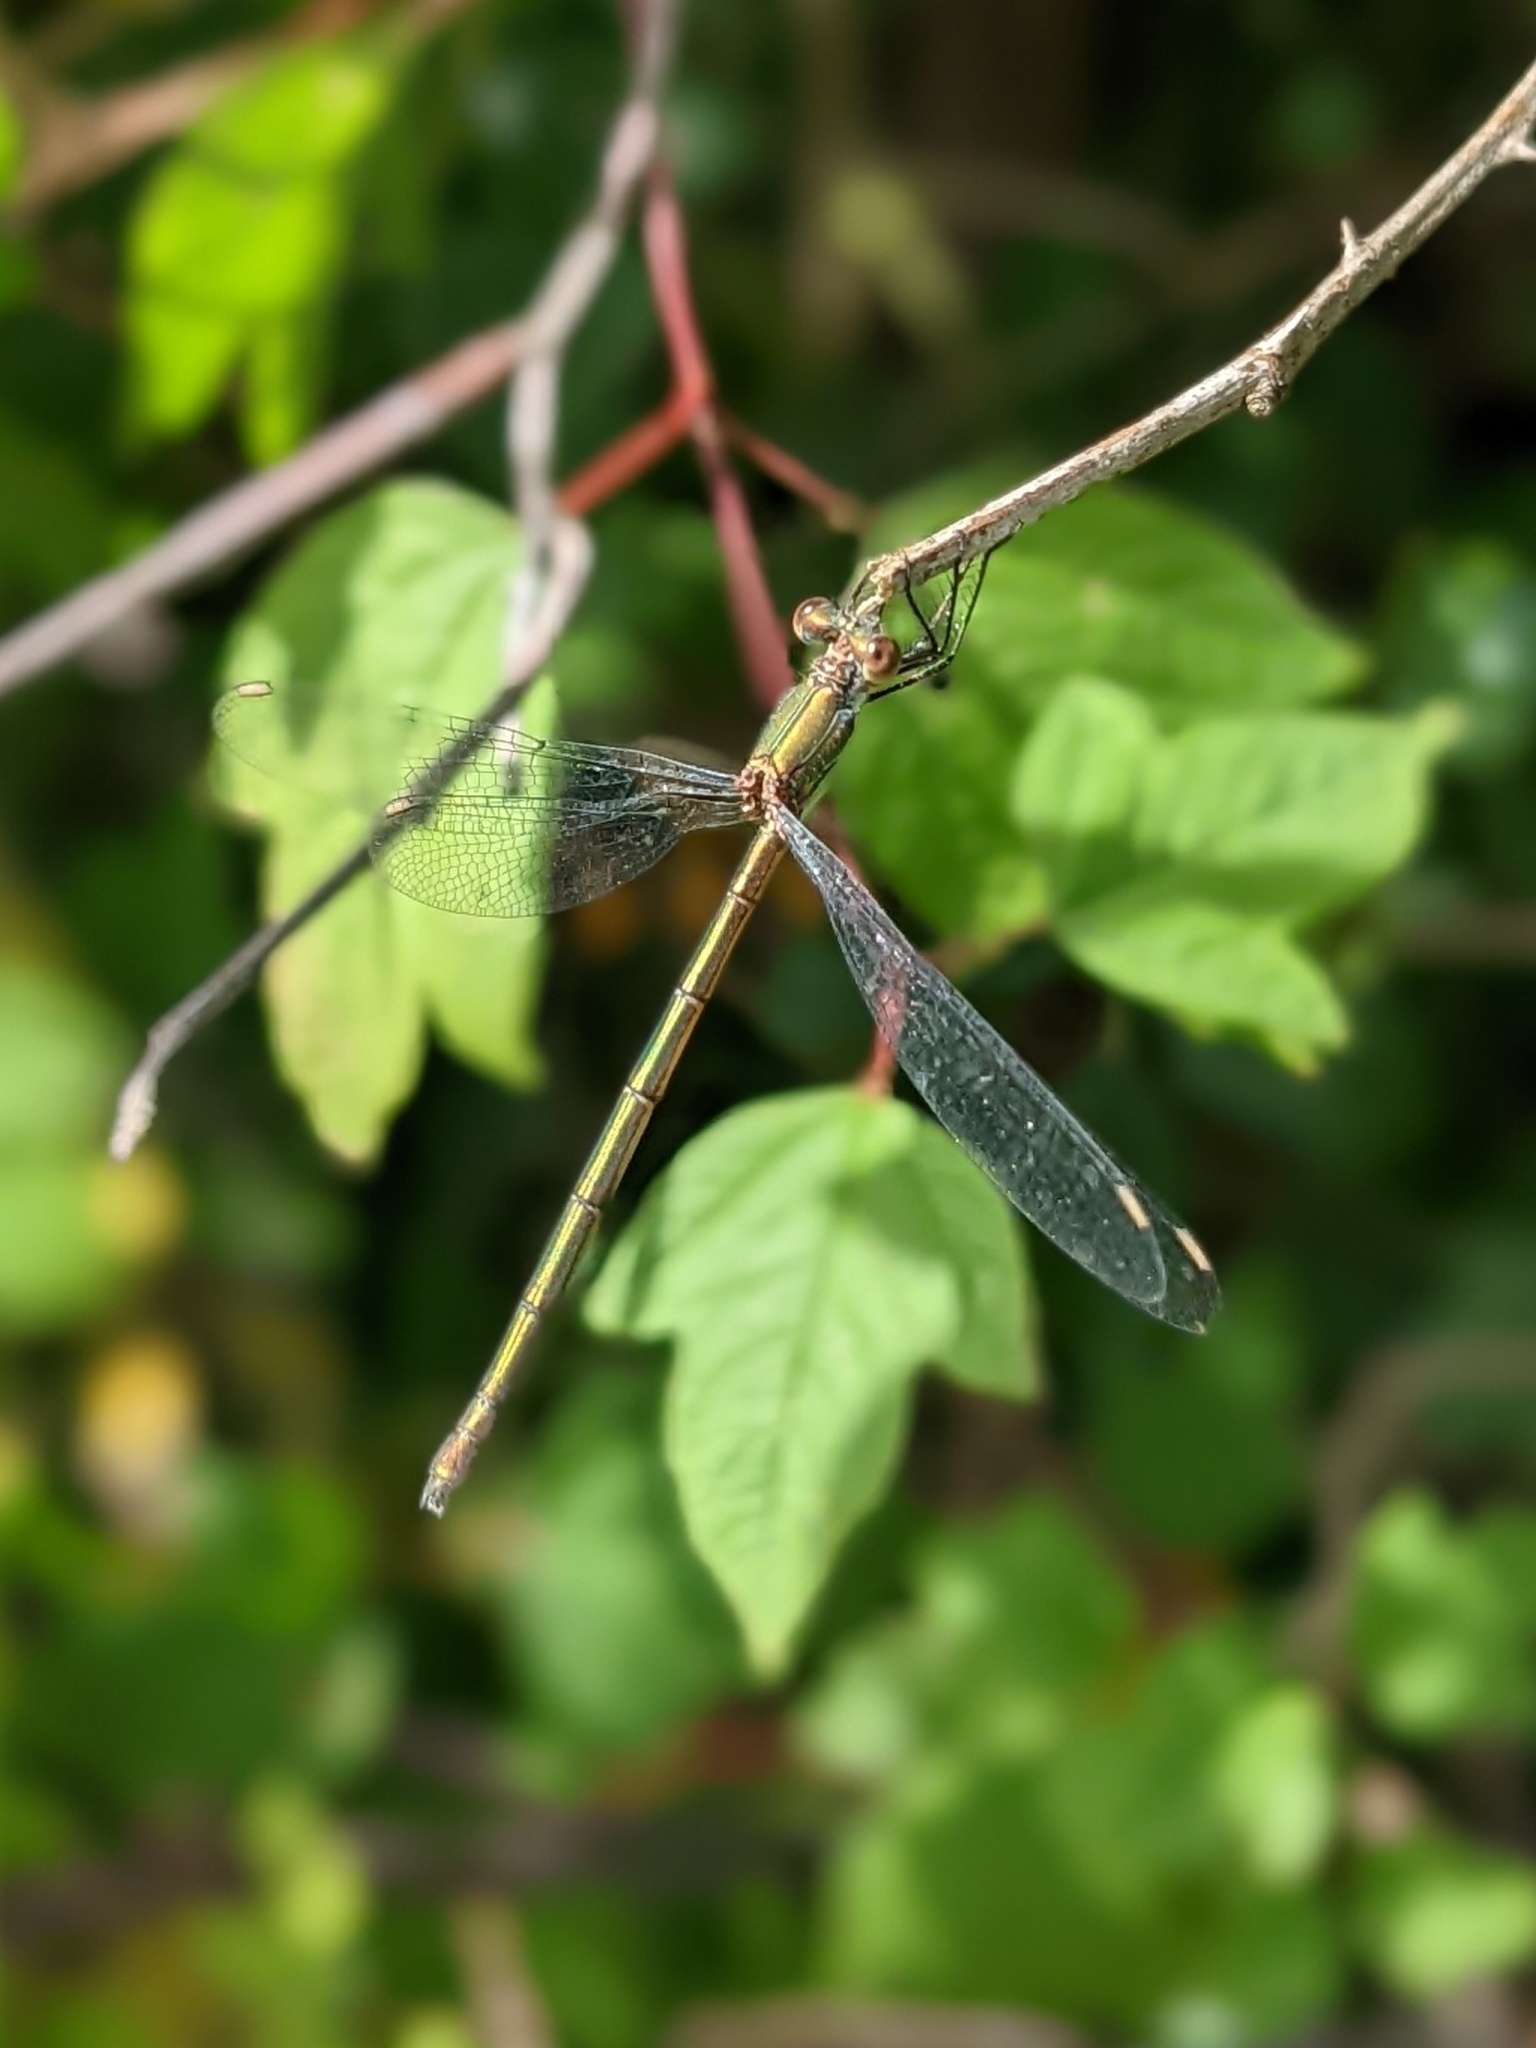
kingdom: Animalia
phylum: Arthropoda
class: Insecta
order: Odonata
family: Lestidae
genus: Chalcolestes
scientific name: Chalcolestes viridis
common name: Green emerald damselfly
